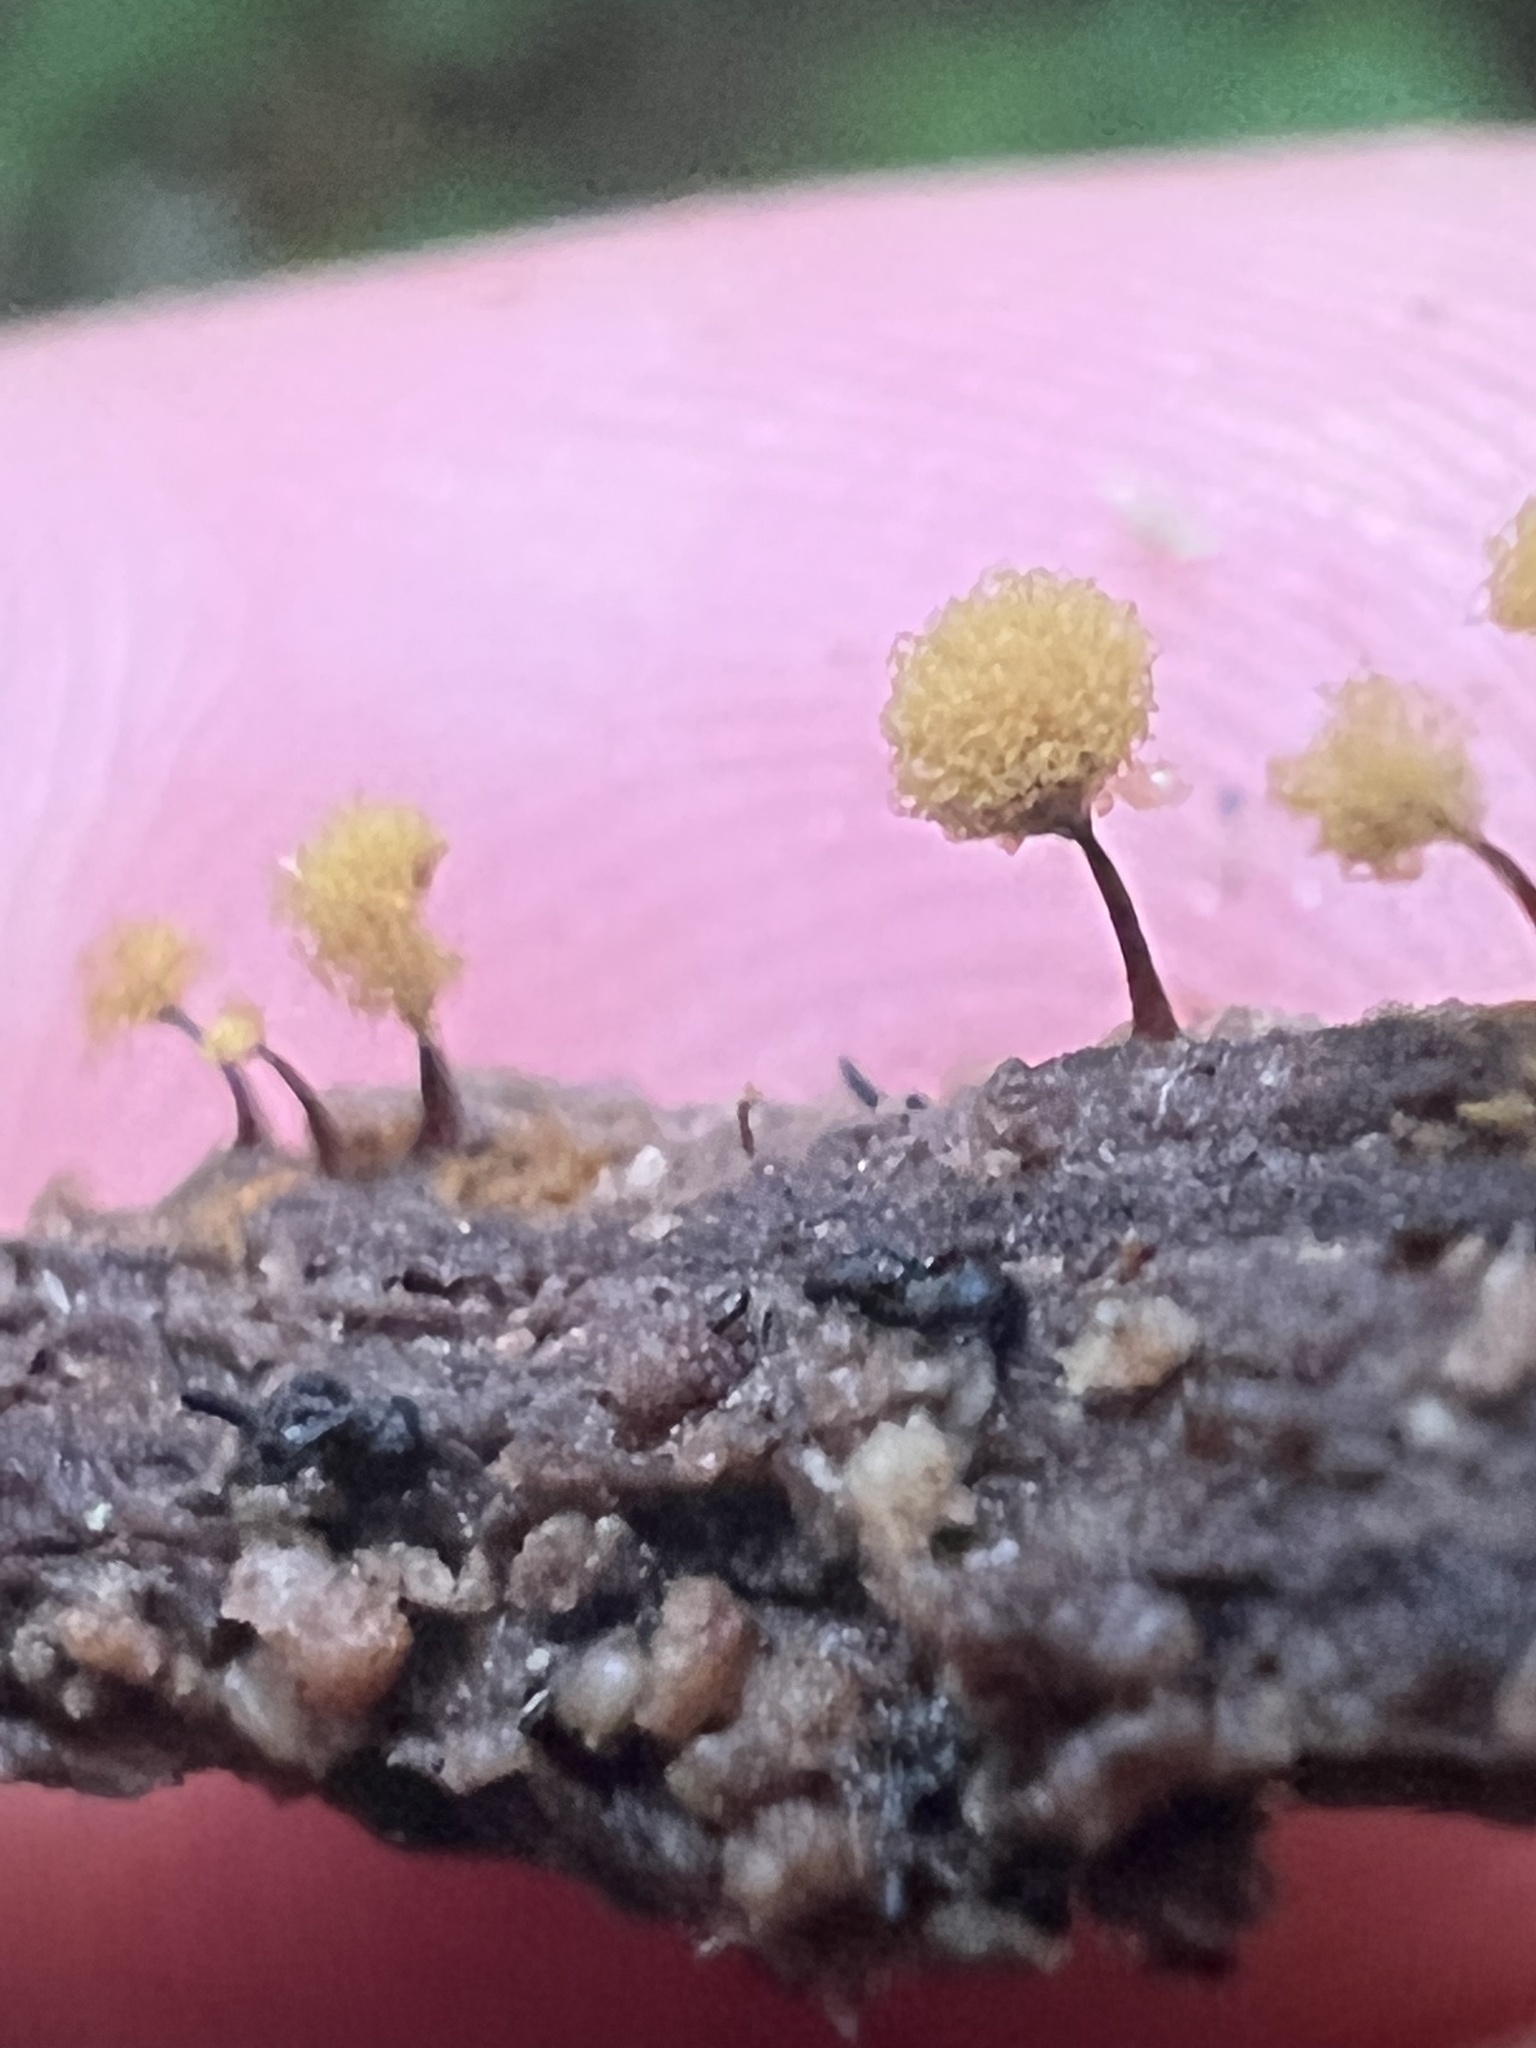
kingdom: Protozoa
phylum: Mycetozoa
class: Myxomycetes
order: Trichiales
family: Arcyriaceae
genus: Hemitrichia
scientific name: Hemitrichia calyculata
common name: Push pin slime mold
